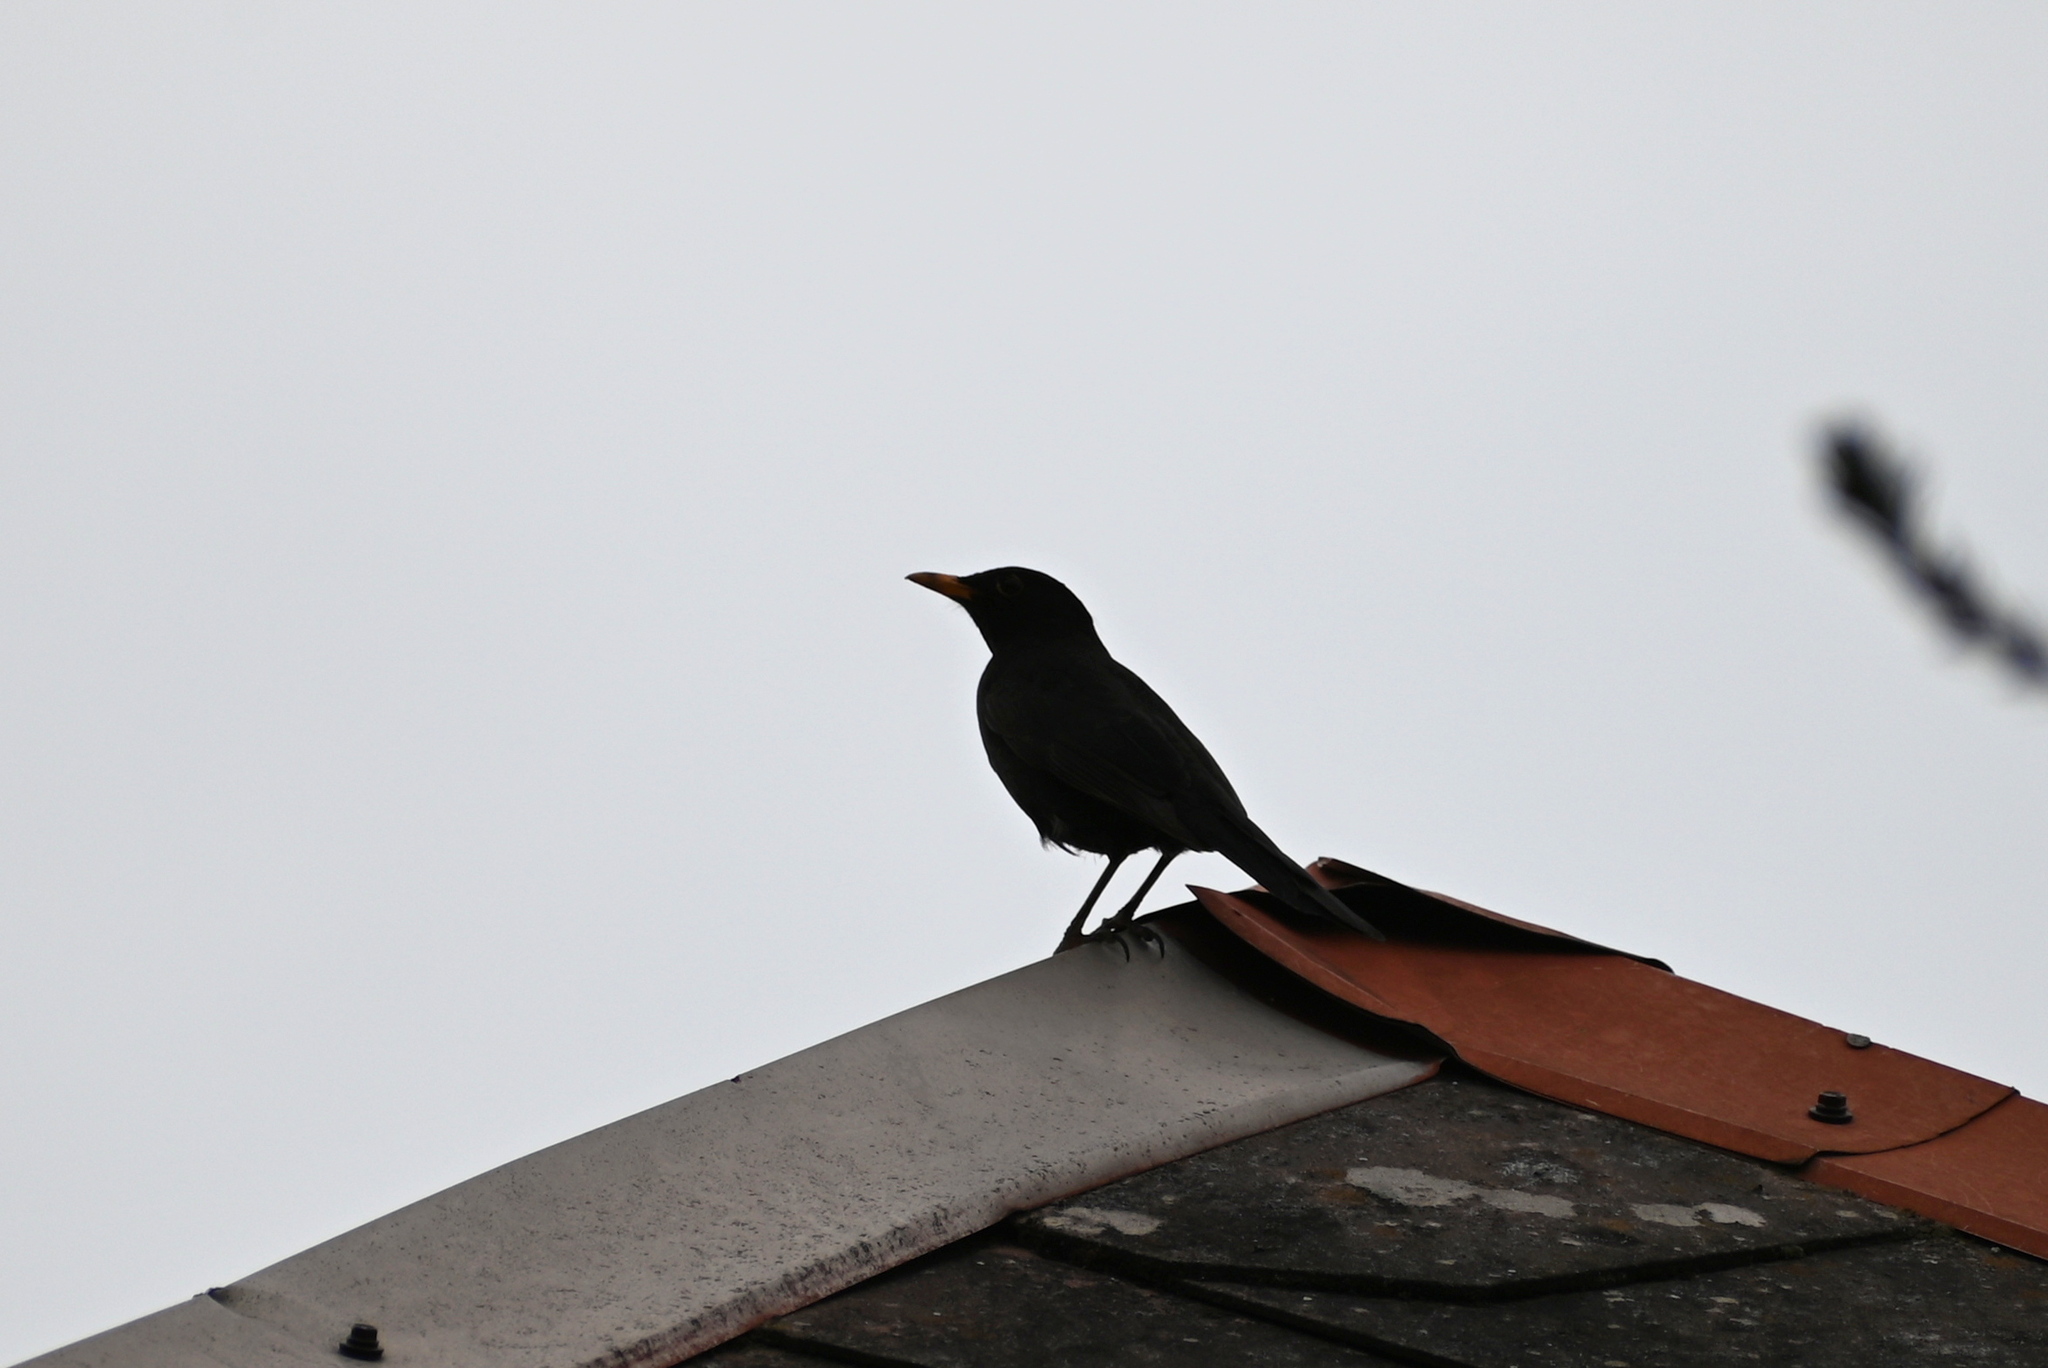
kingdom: Animalia
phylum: Chordata
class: Aves
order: Passeriformes
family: Turdidae
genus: Turdus
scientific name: Turdus merula
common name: Common blackbird
